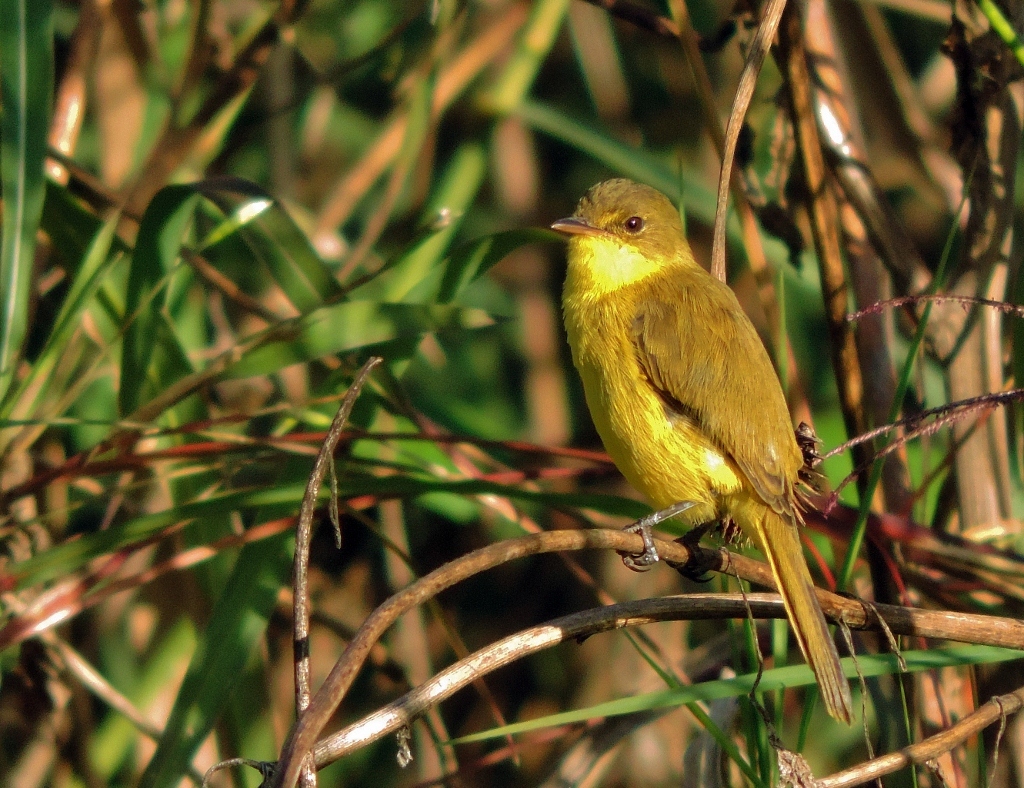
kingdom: Animalia
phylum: Chordata
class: Aves
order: Passeriformes
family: Acrocephalidae
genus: Iduna
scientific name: Iduna natalensis
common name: African yellow warbler
